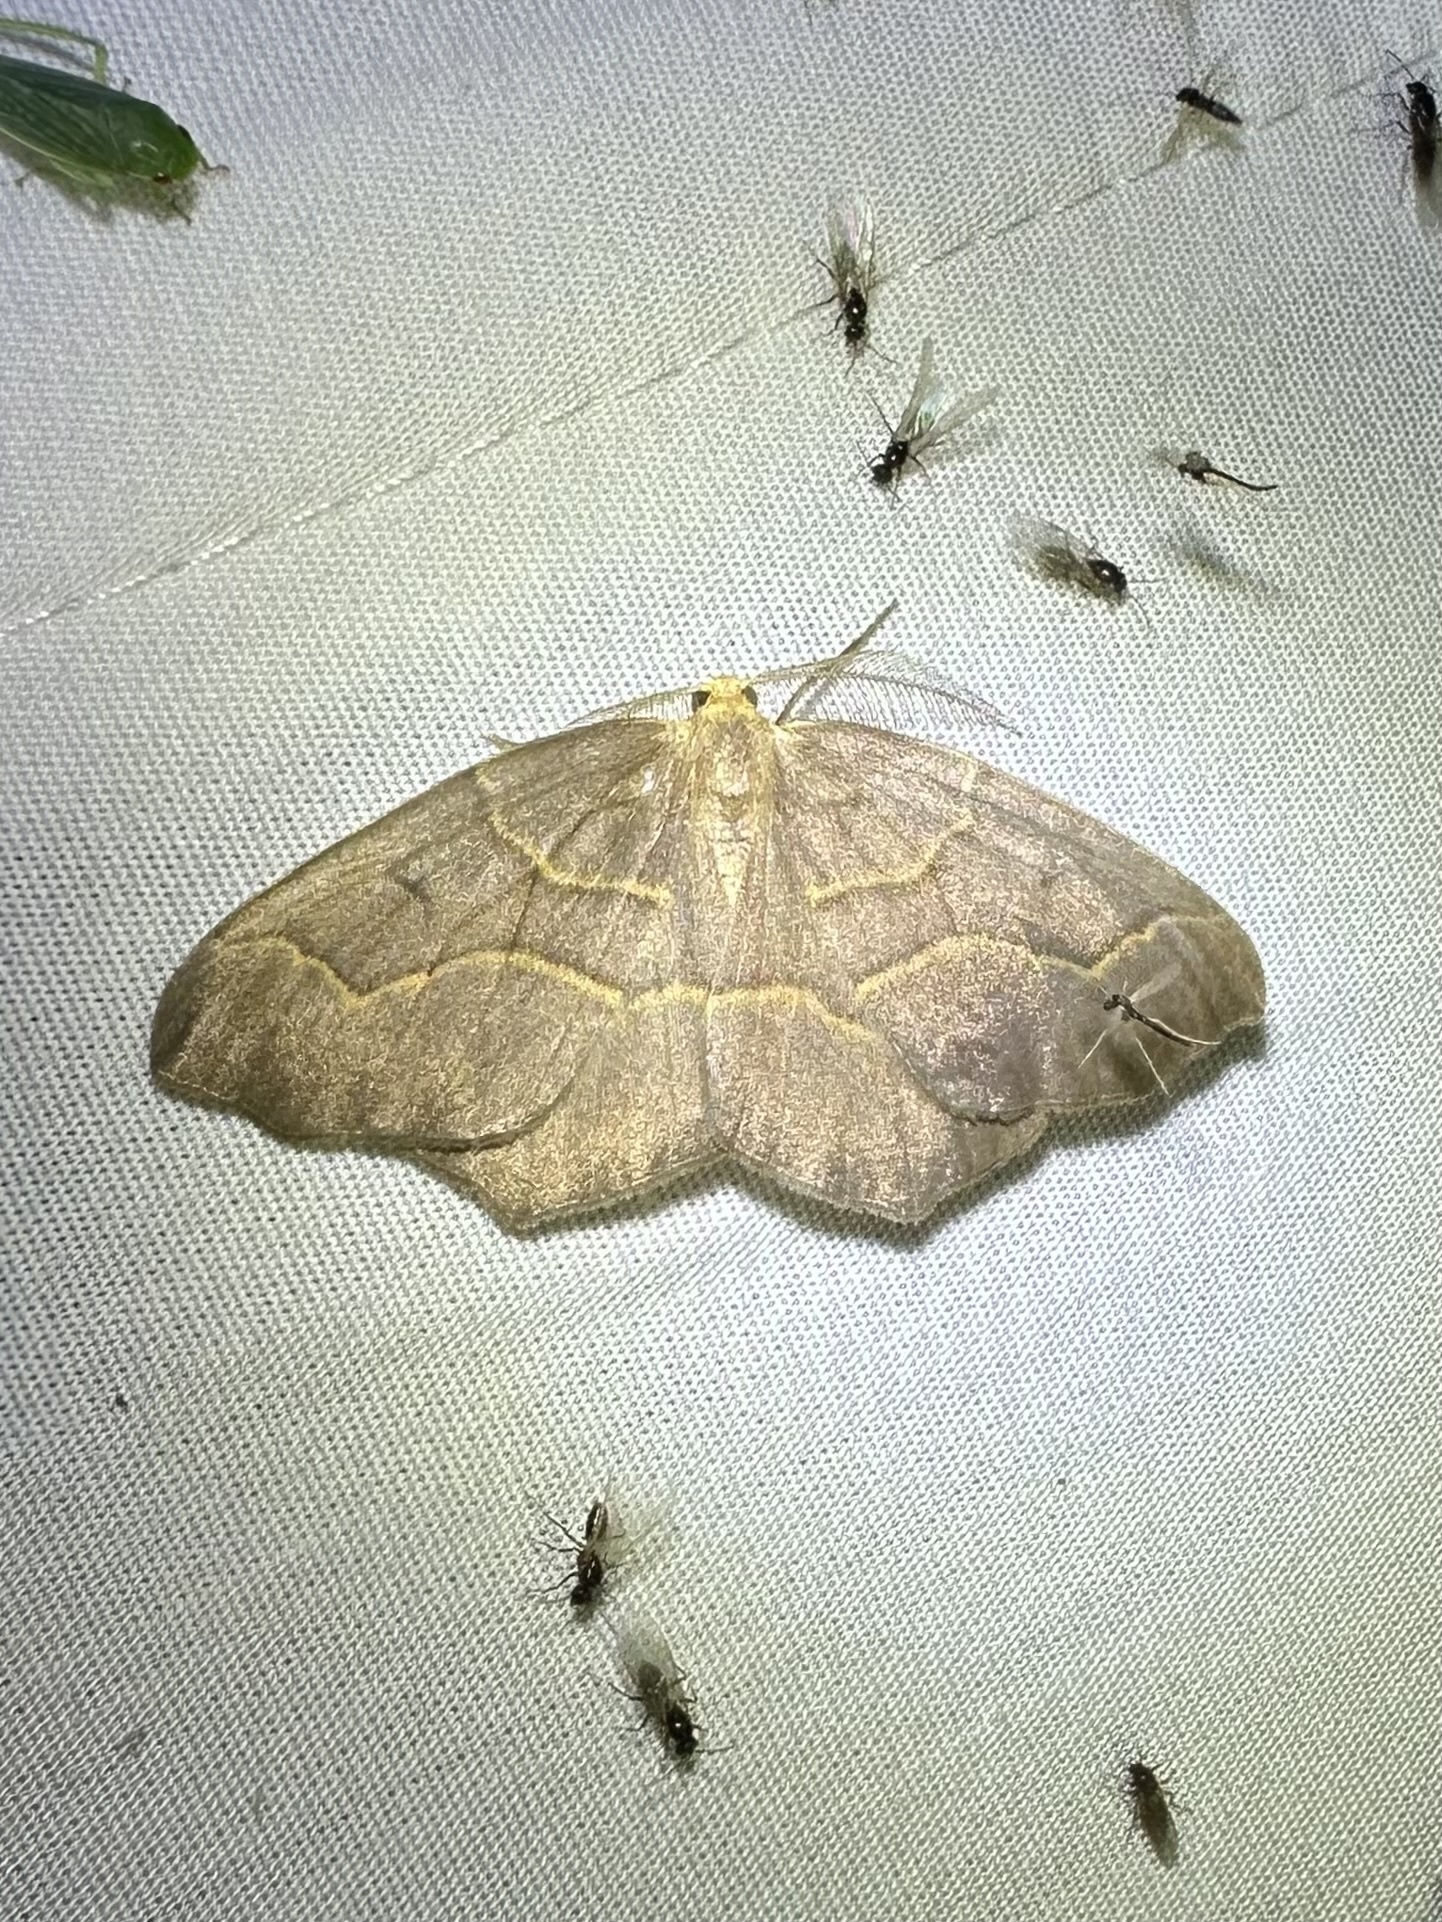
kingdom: Animalia
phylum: Arthropoda
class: Insecta
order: Lepidoptera
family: Geometridae
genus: Lambdina
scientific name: Lambdina fiscellaria
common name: Hemlock looper
